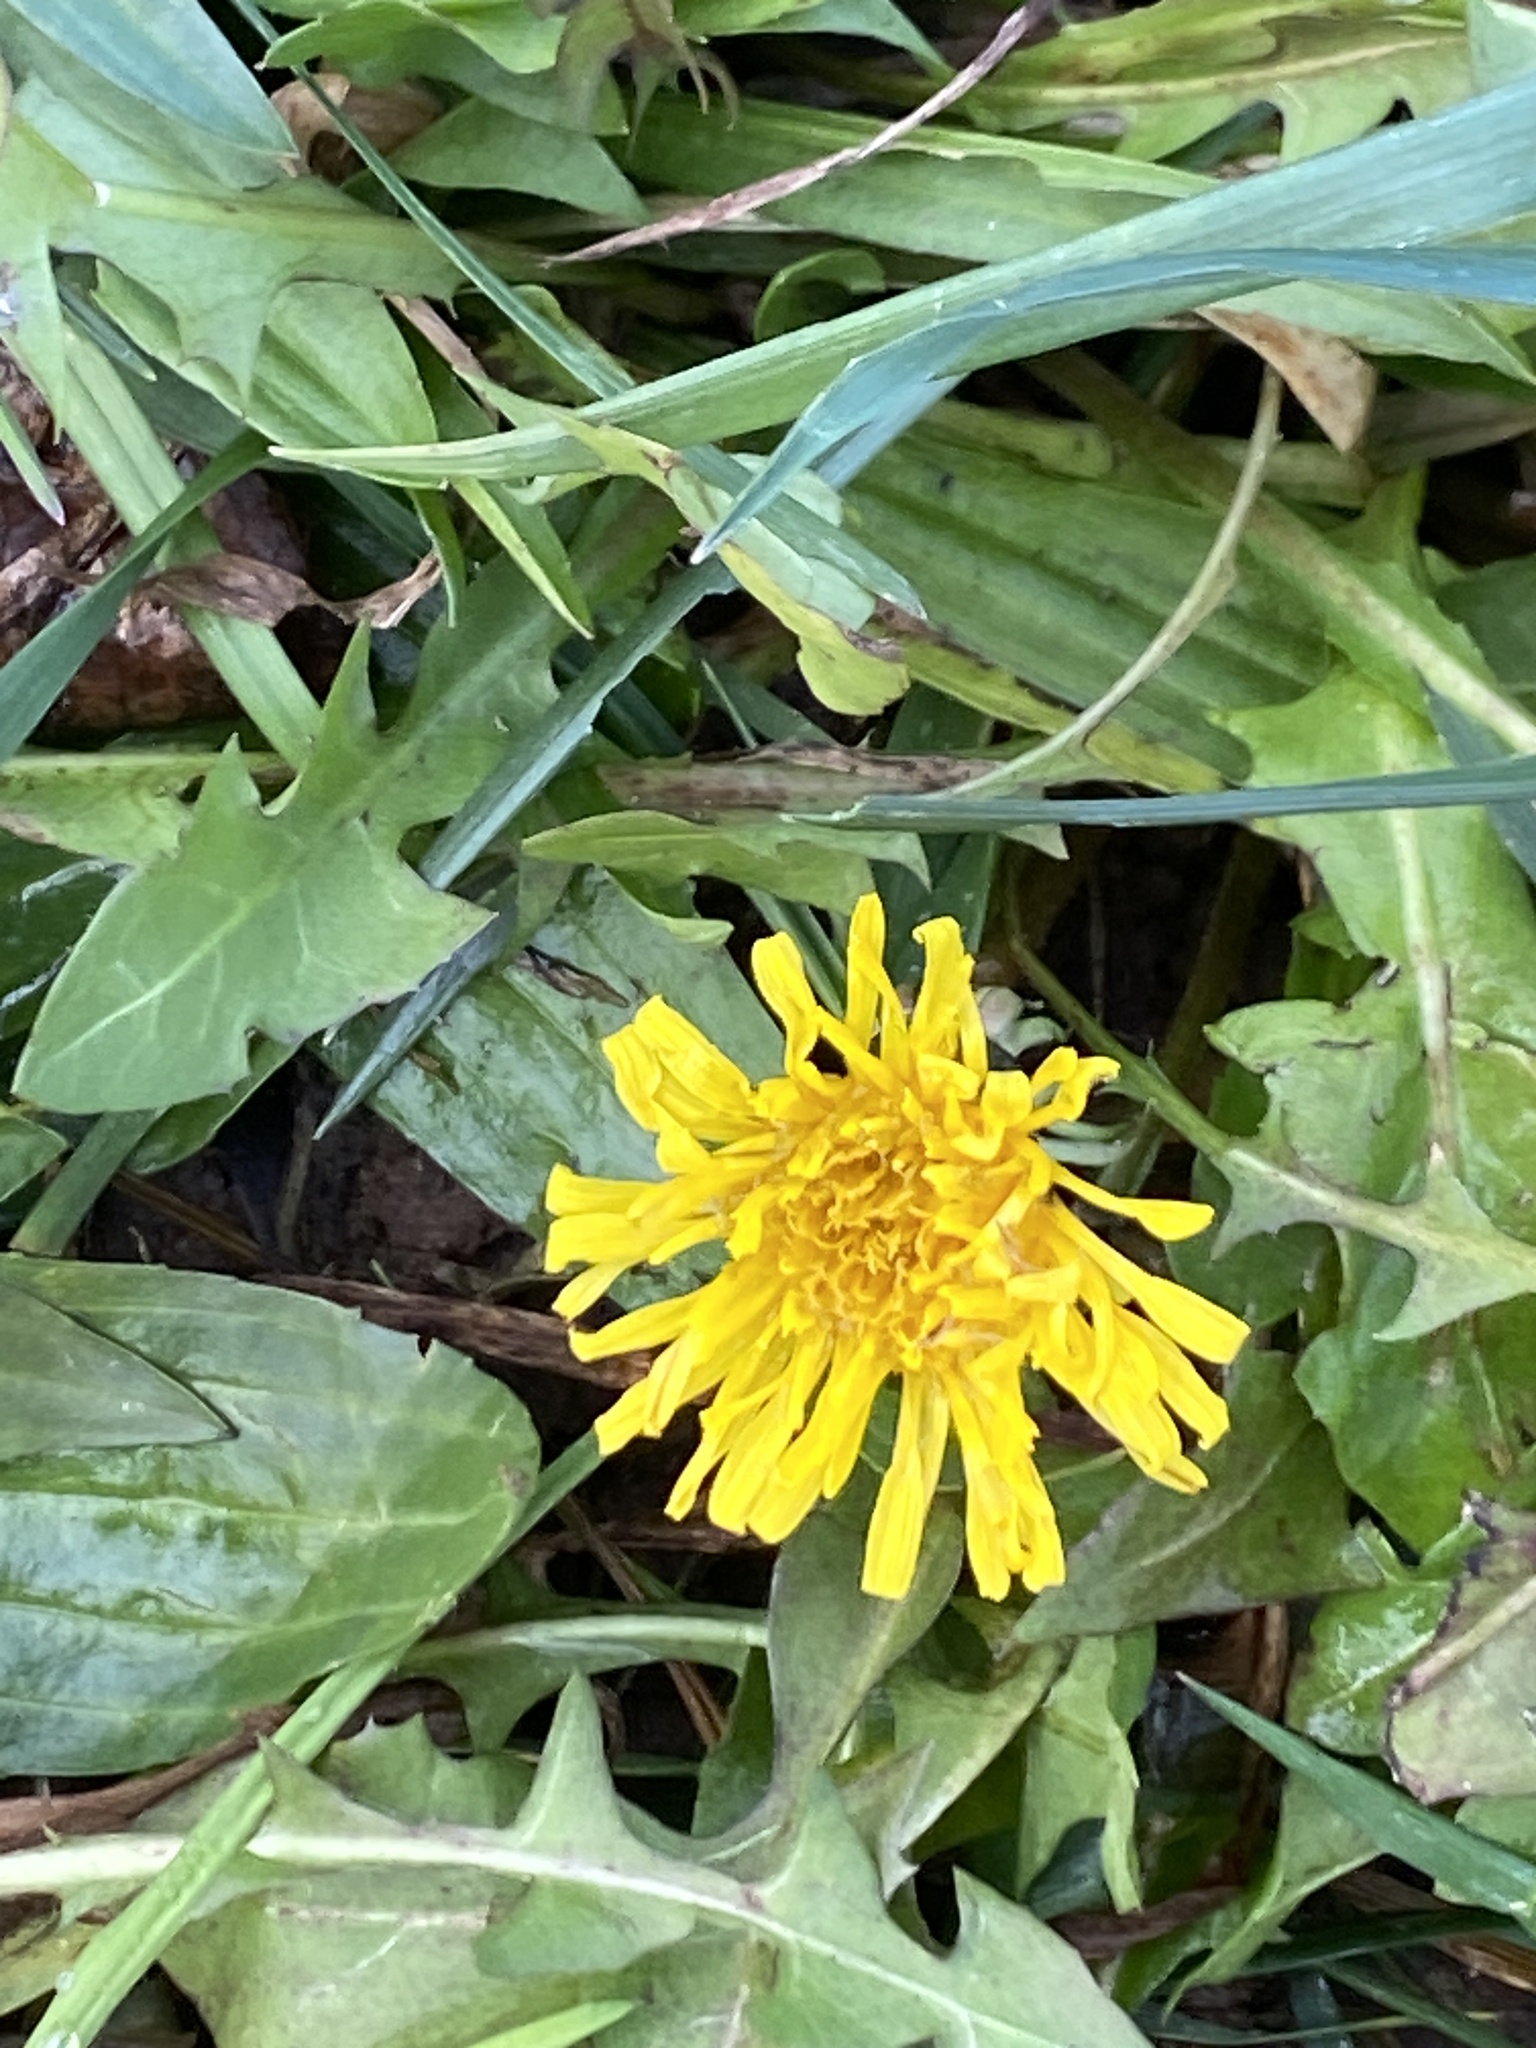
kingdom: Plantae
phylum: Tracheophyta
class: Magnoliopsida
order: Asterales
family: Asteraceae
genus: Taraxacum
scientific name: Taraxacum
